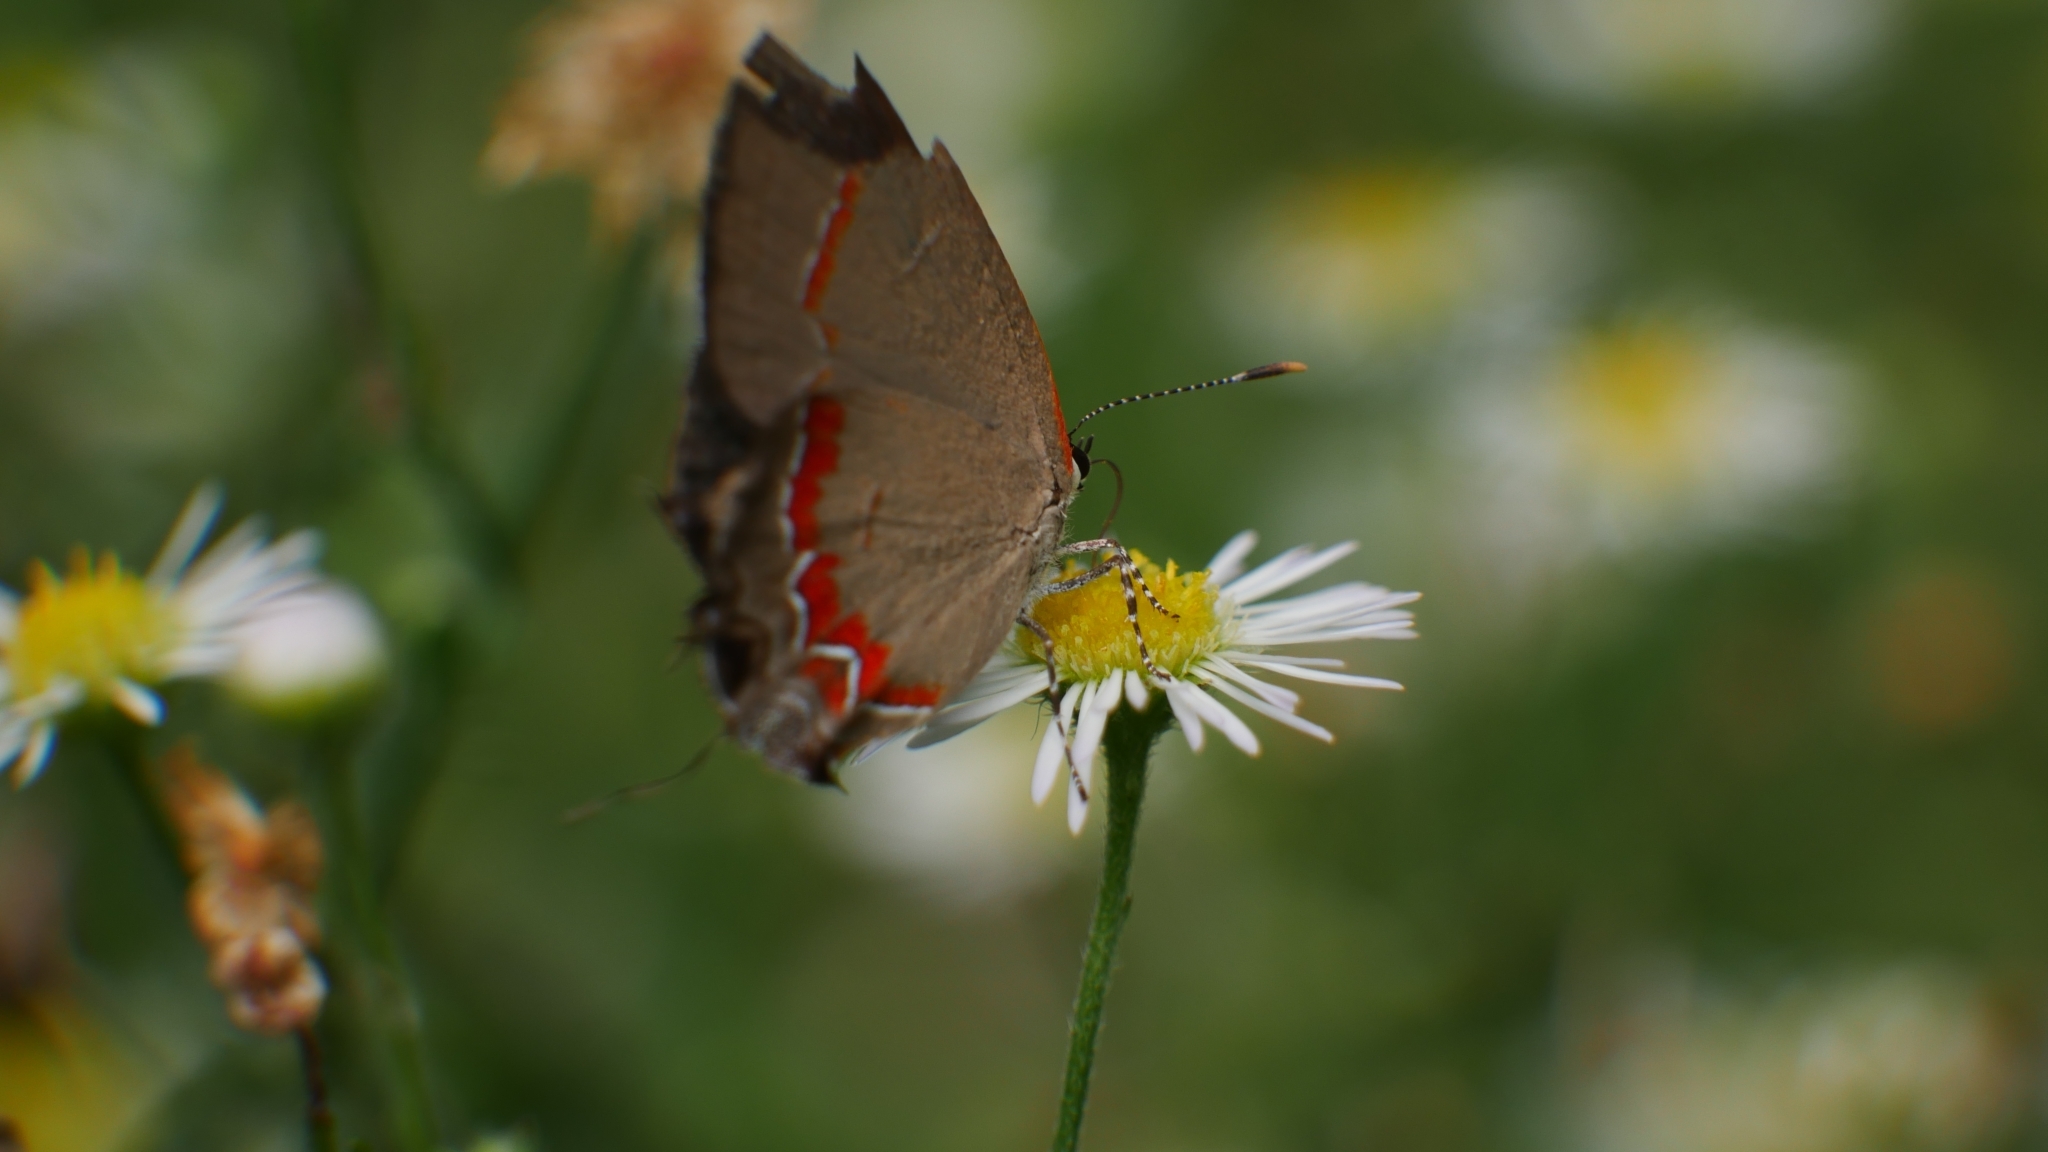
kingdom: Animalia
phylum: Arthropoda
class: Insecta
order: Lepidoptera
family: Lycaenidae
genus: Calycopis
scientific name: Calycopis cecrops
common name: Red-banded hairstreak
